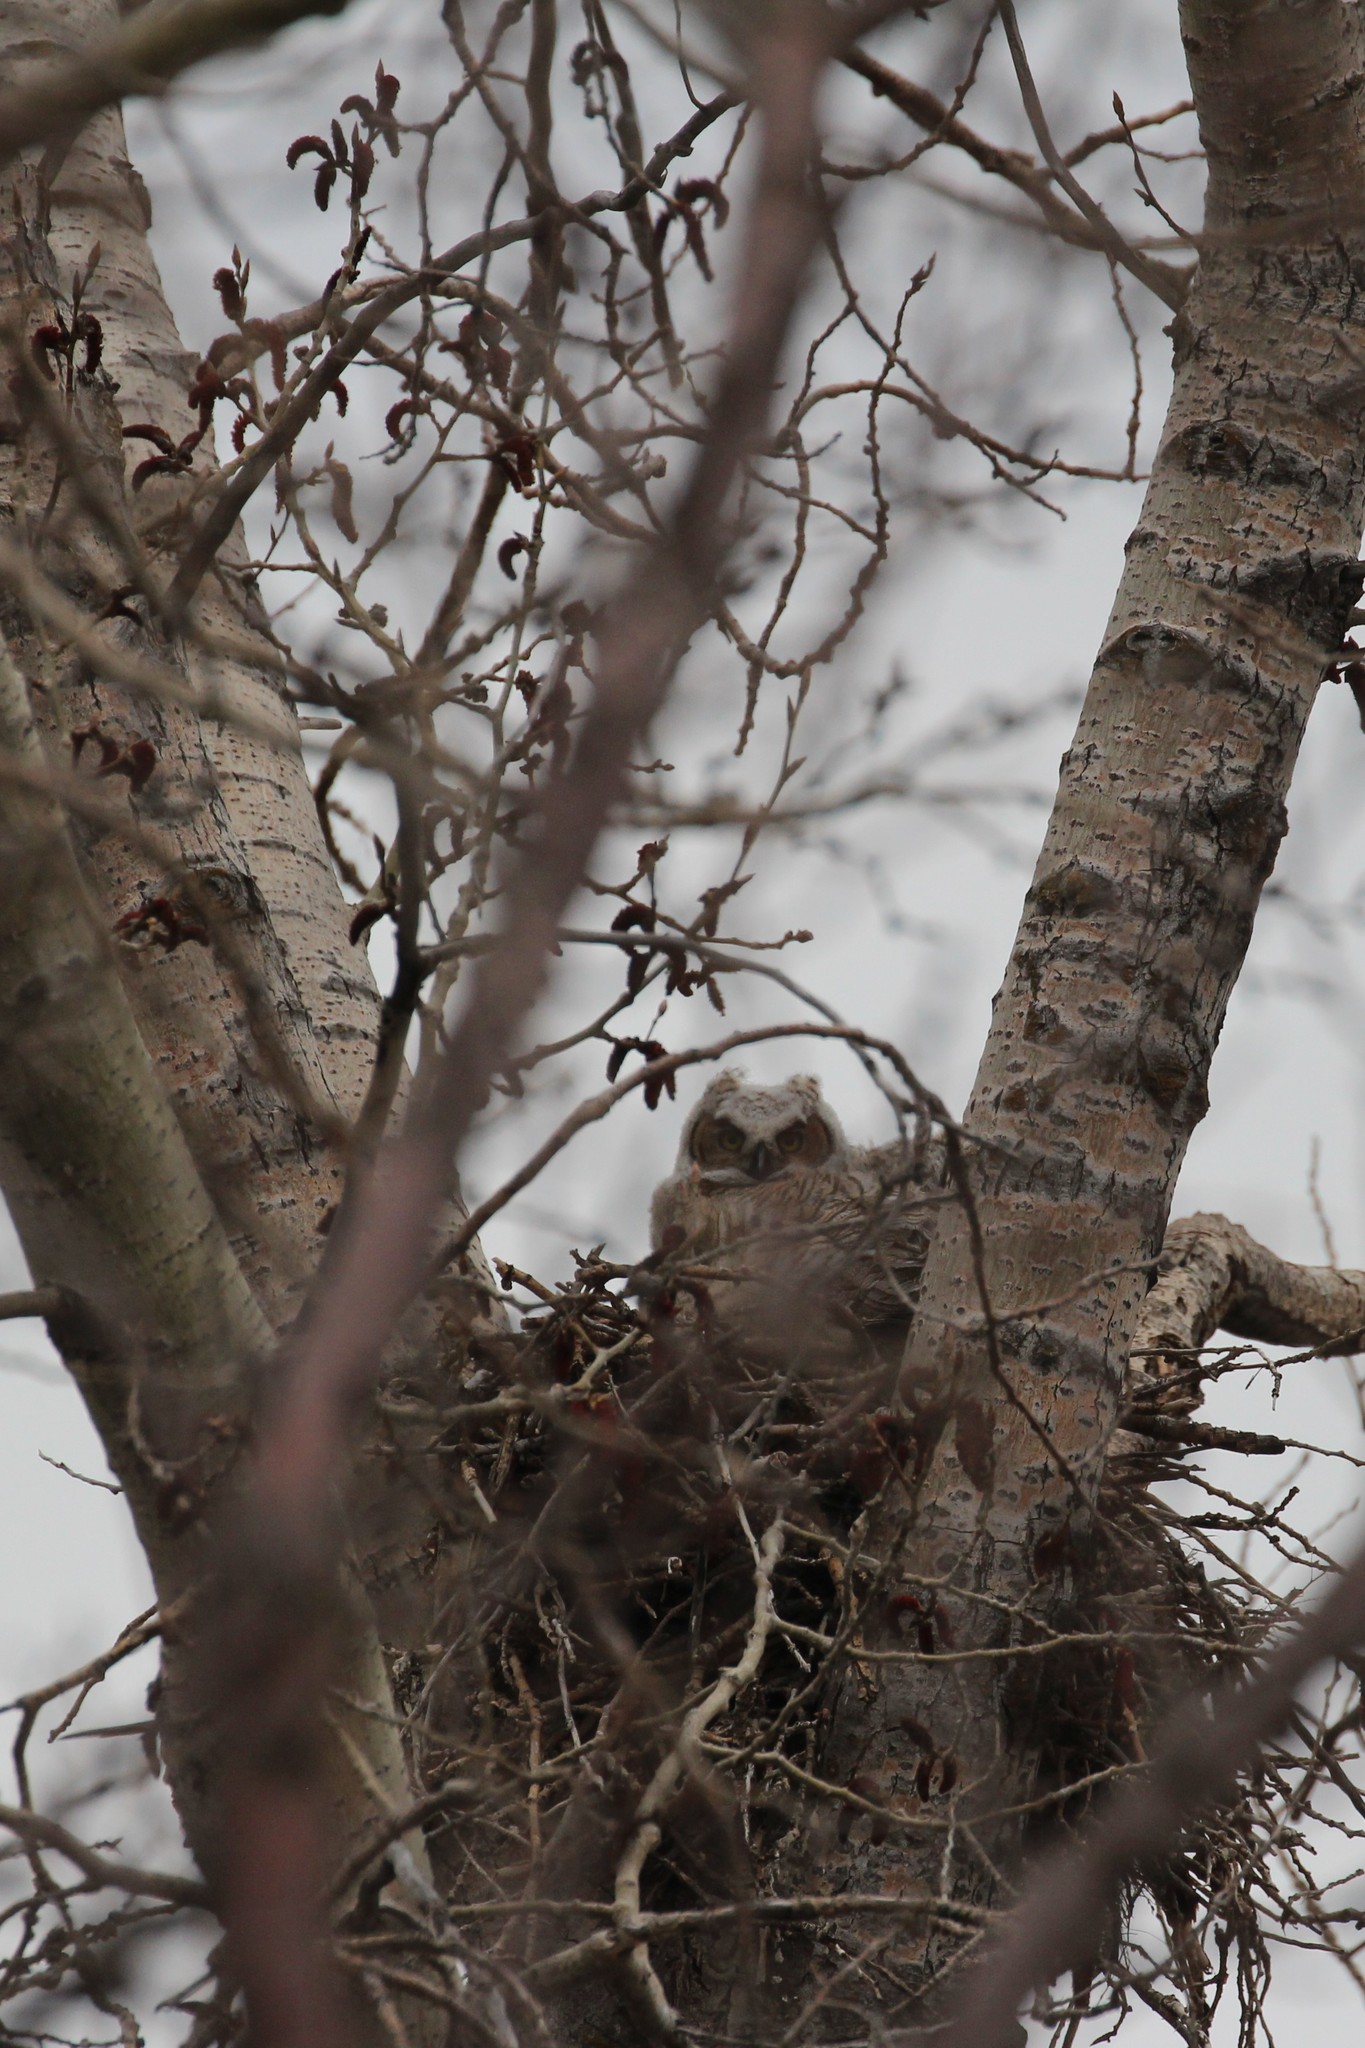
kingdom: Animalia
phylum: Chordata
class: Aves
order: Strigiformes
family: Strigidae
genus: Bubo
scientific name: Bubo virginianus
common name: Great horned owl
